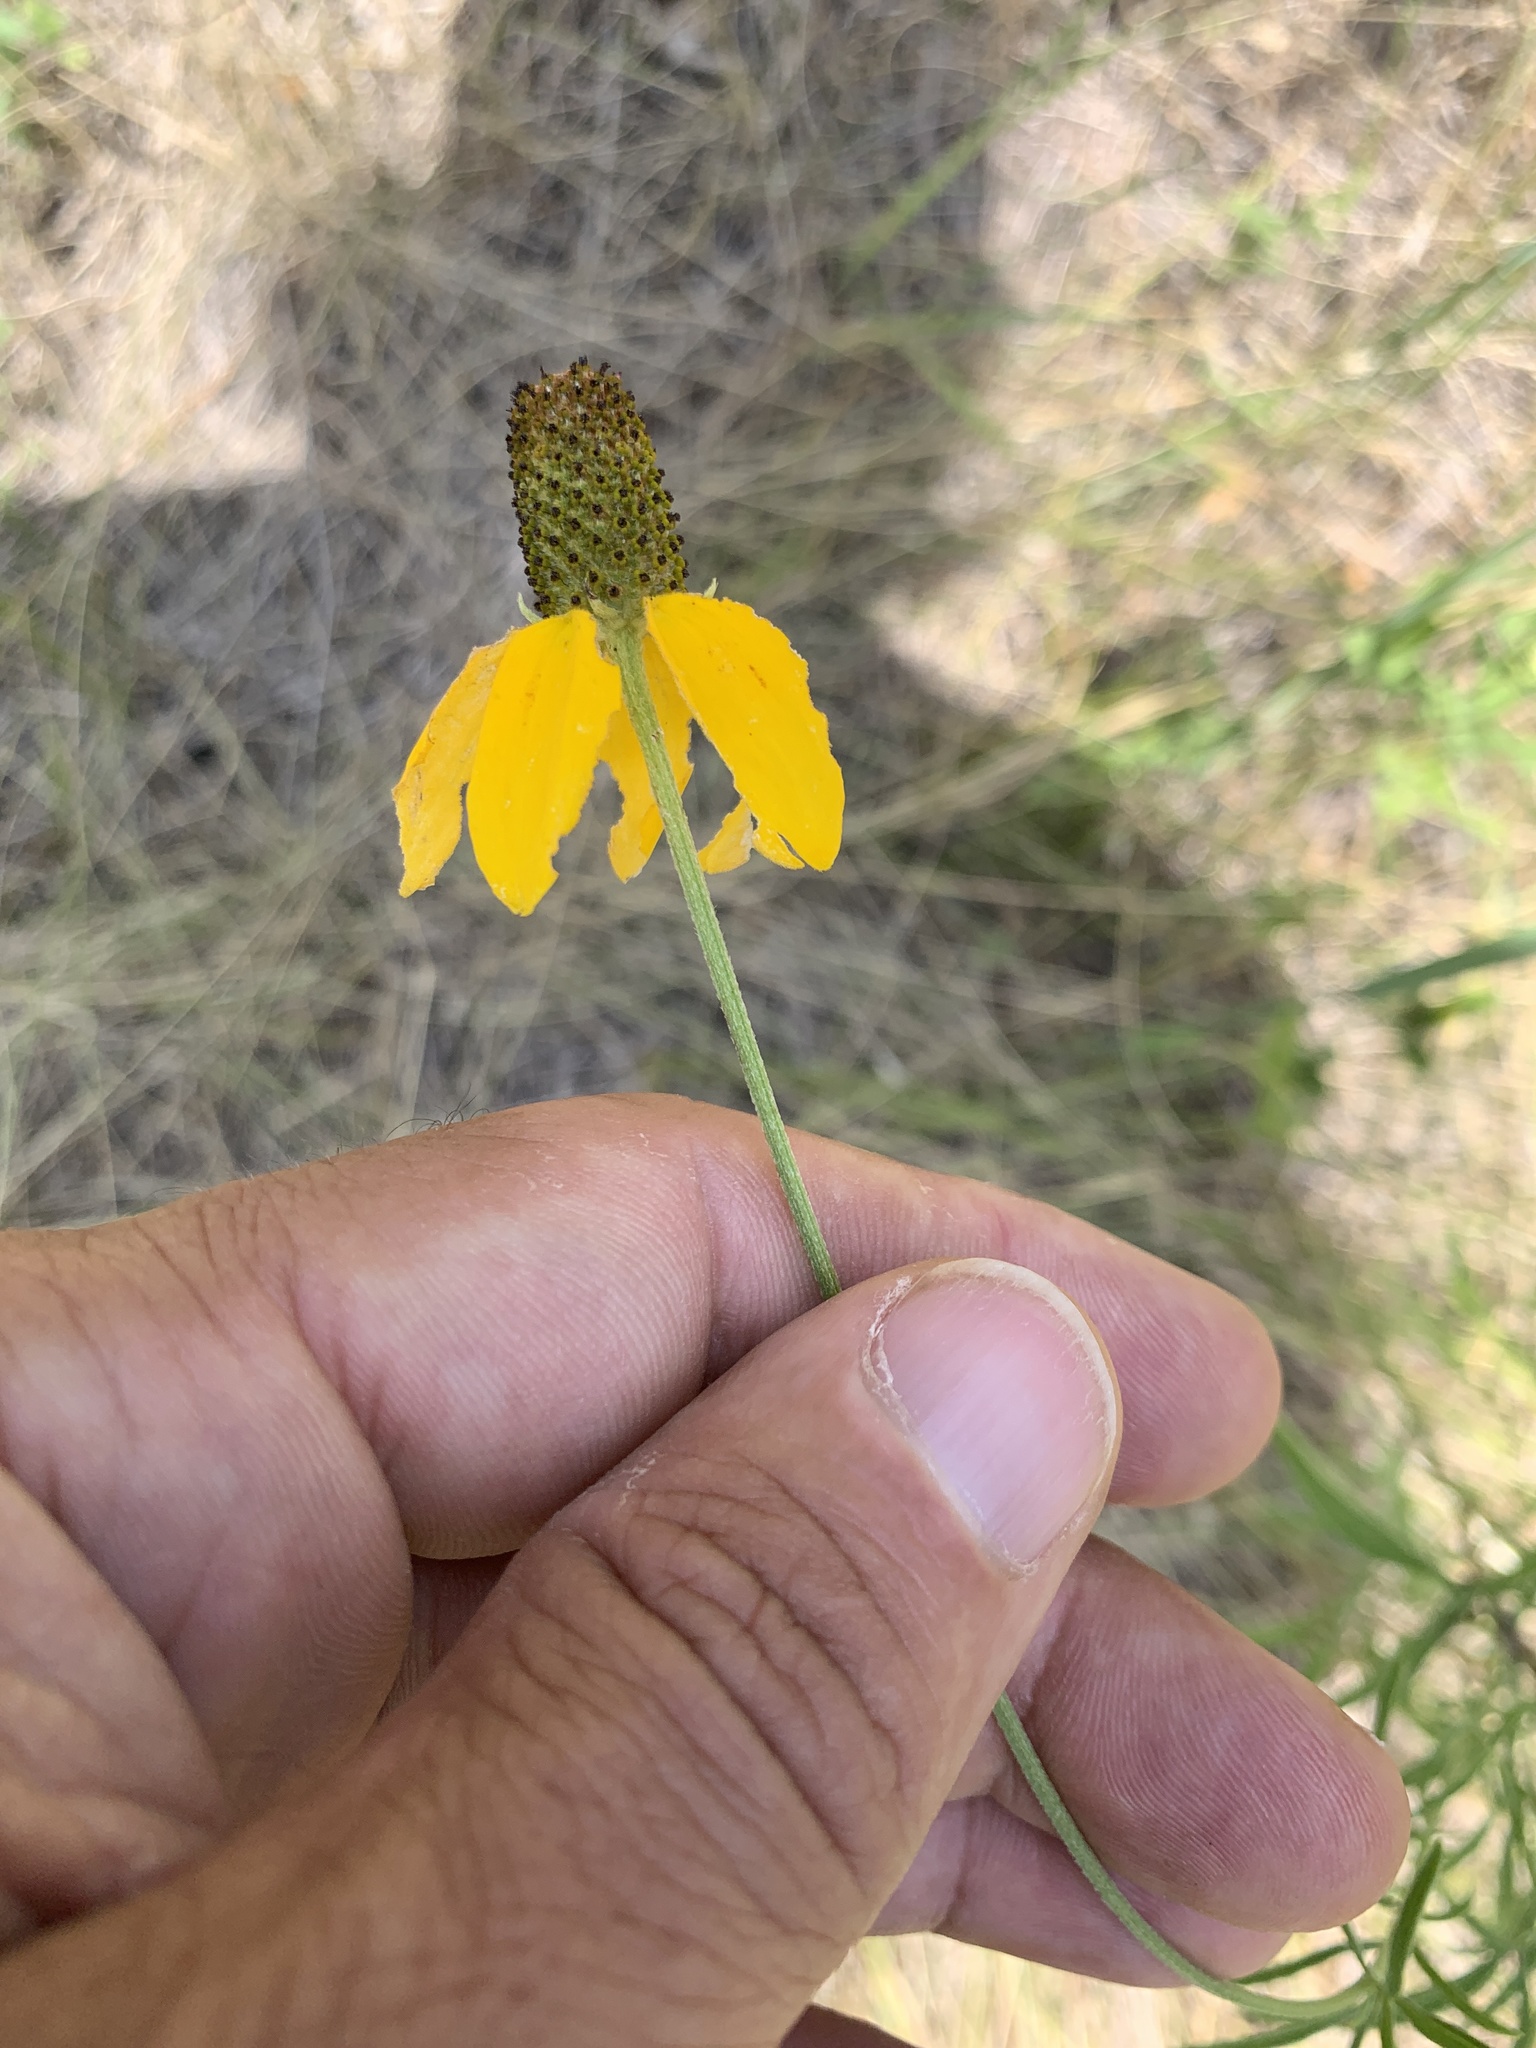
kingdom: Plantae
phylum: Tracheophyta
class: Magnoliopsida
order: Asterales
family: Asteraceae
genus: Ratibida
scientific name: Ratibida columnifera
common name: Prairie coneflower
